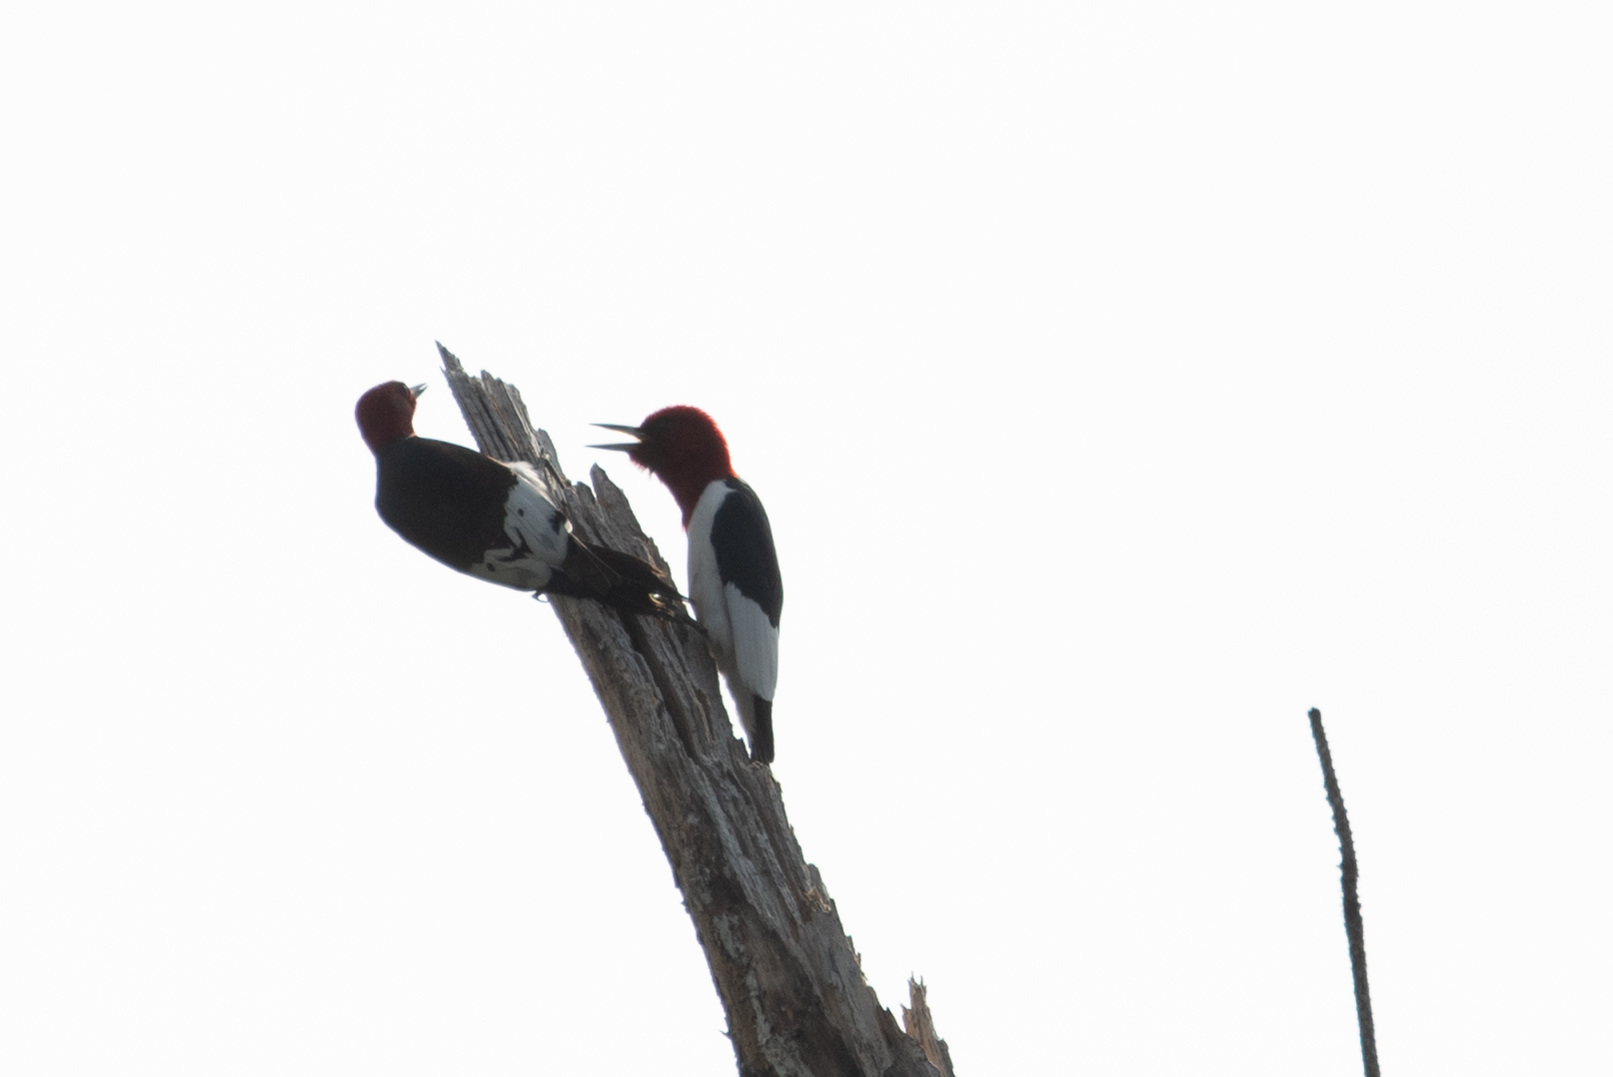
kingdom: Animalia
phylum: Chordata
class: Aves
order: Piciformes
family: Picidae
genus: Melanerpes
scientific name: Melanerpes erythrocephalus
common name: Red-headed woodpecker
